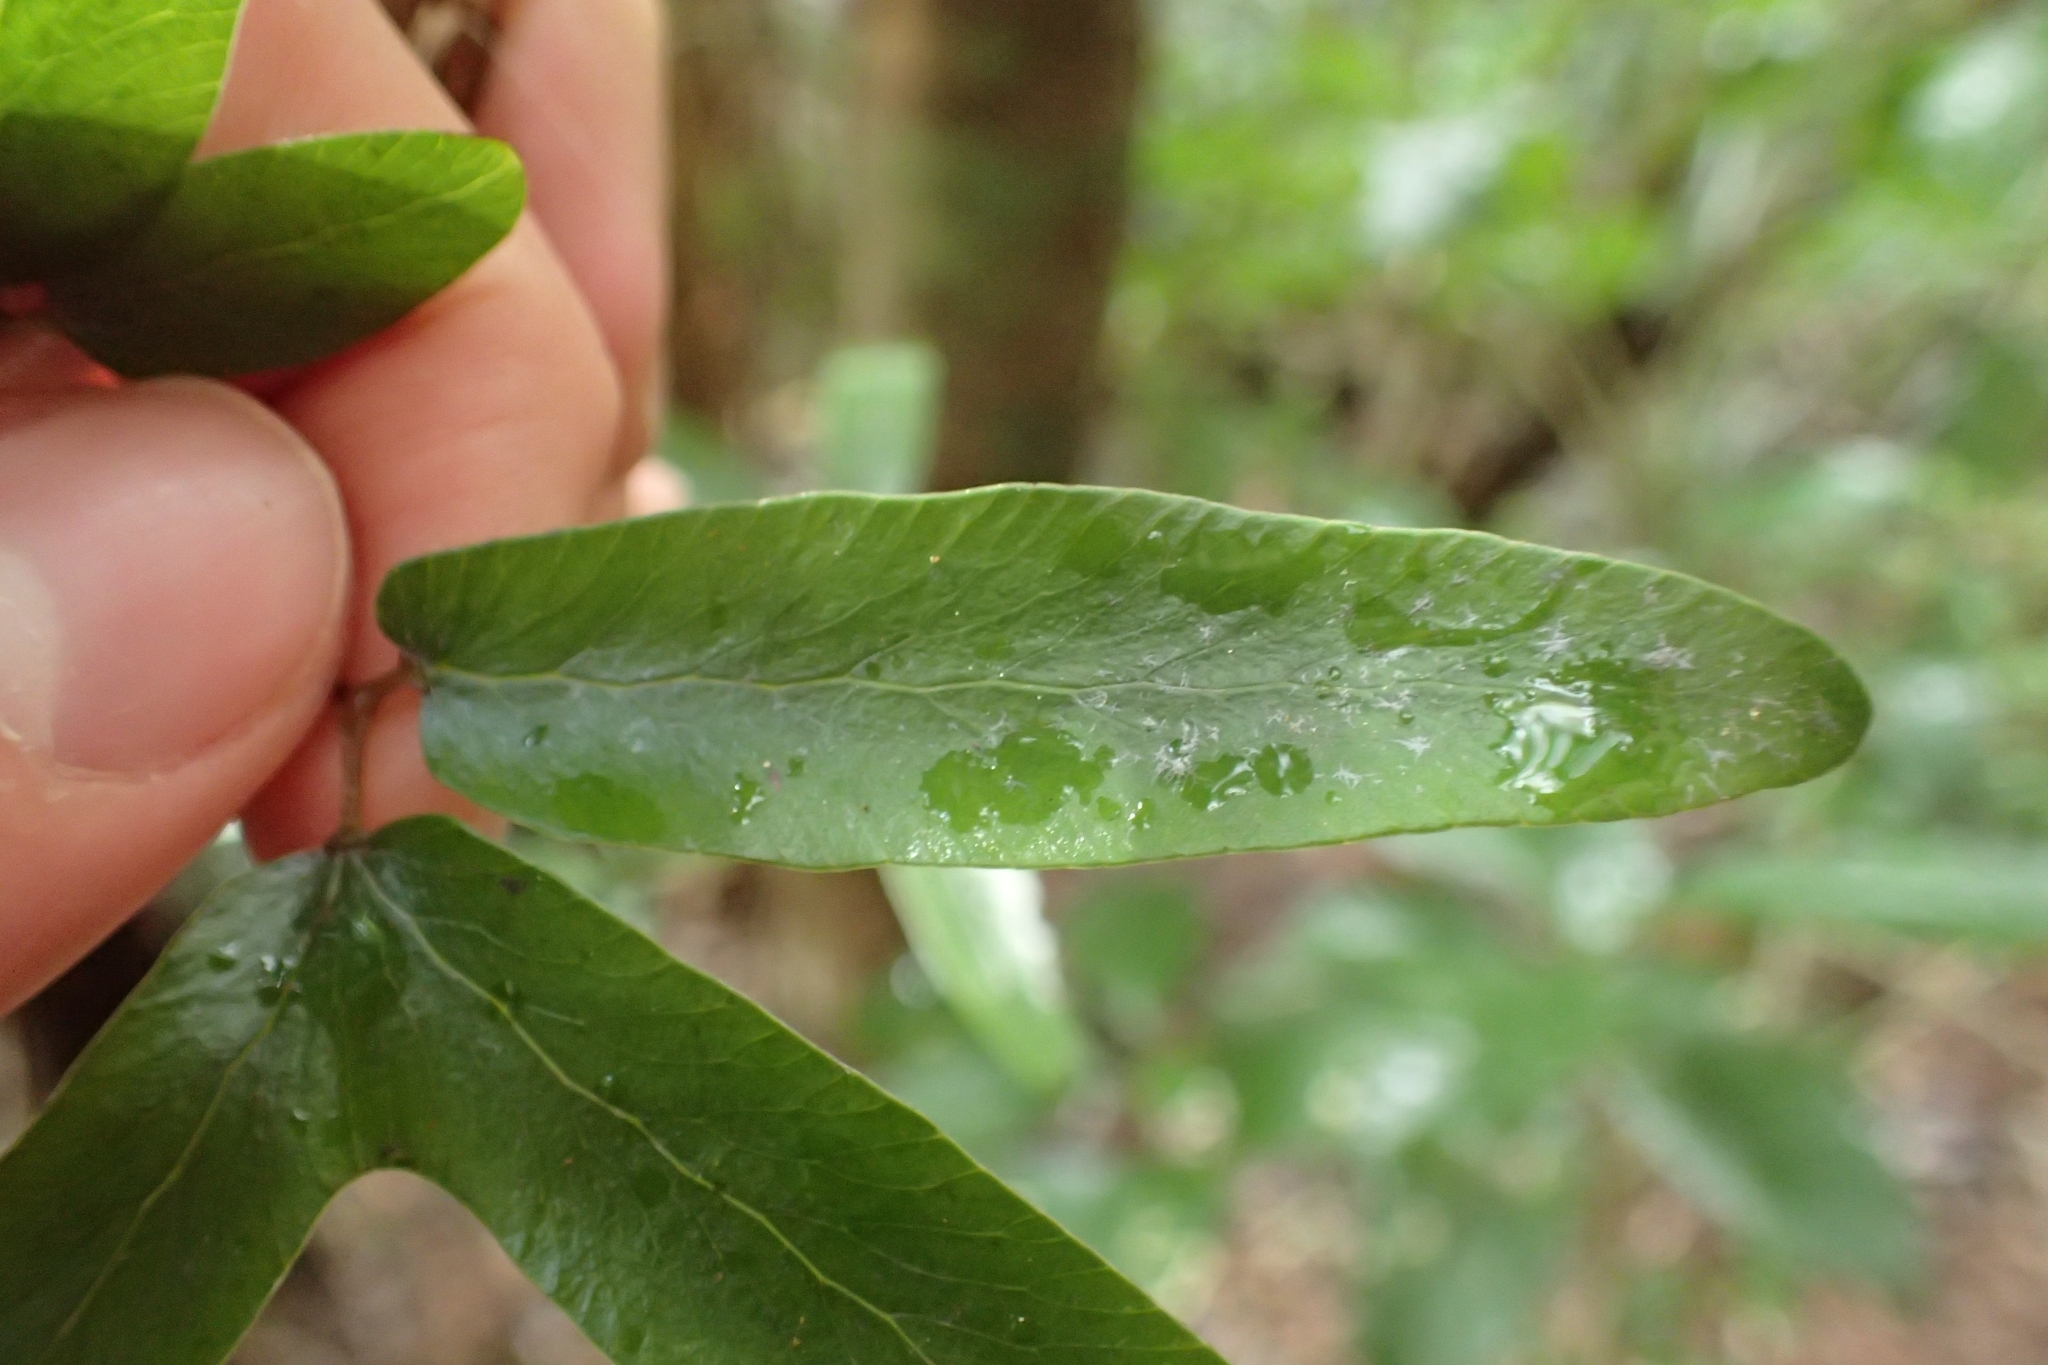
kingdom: Plantae
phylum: Tracheophyta
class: Polypodiopsida
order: Schizaeales
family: Lygodiaceae
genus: Lygodium
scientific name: Lygodium articulatum
